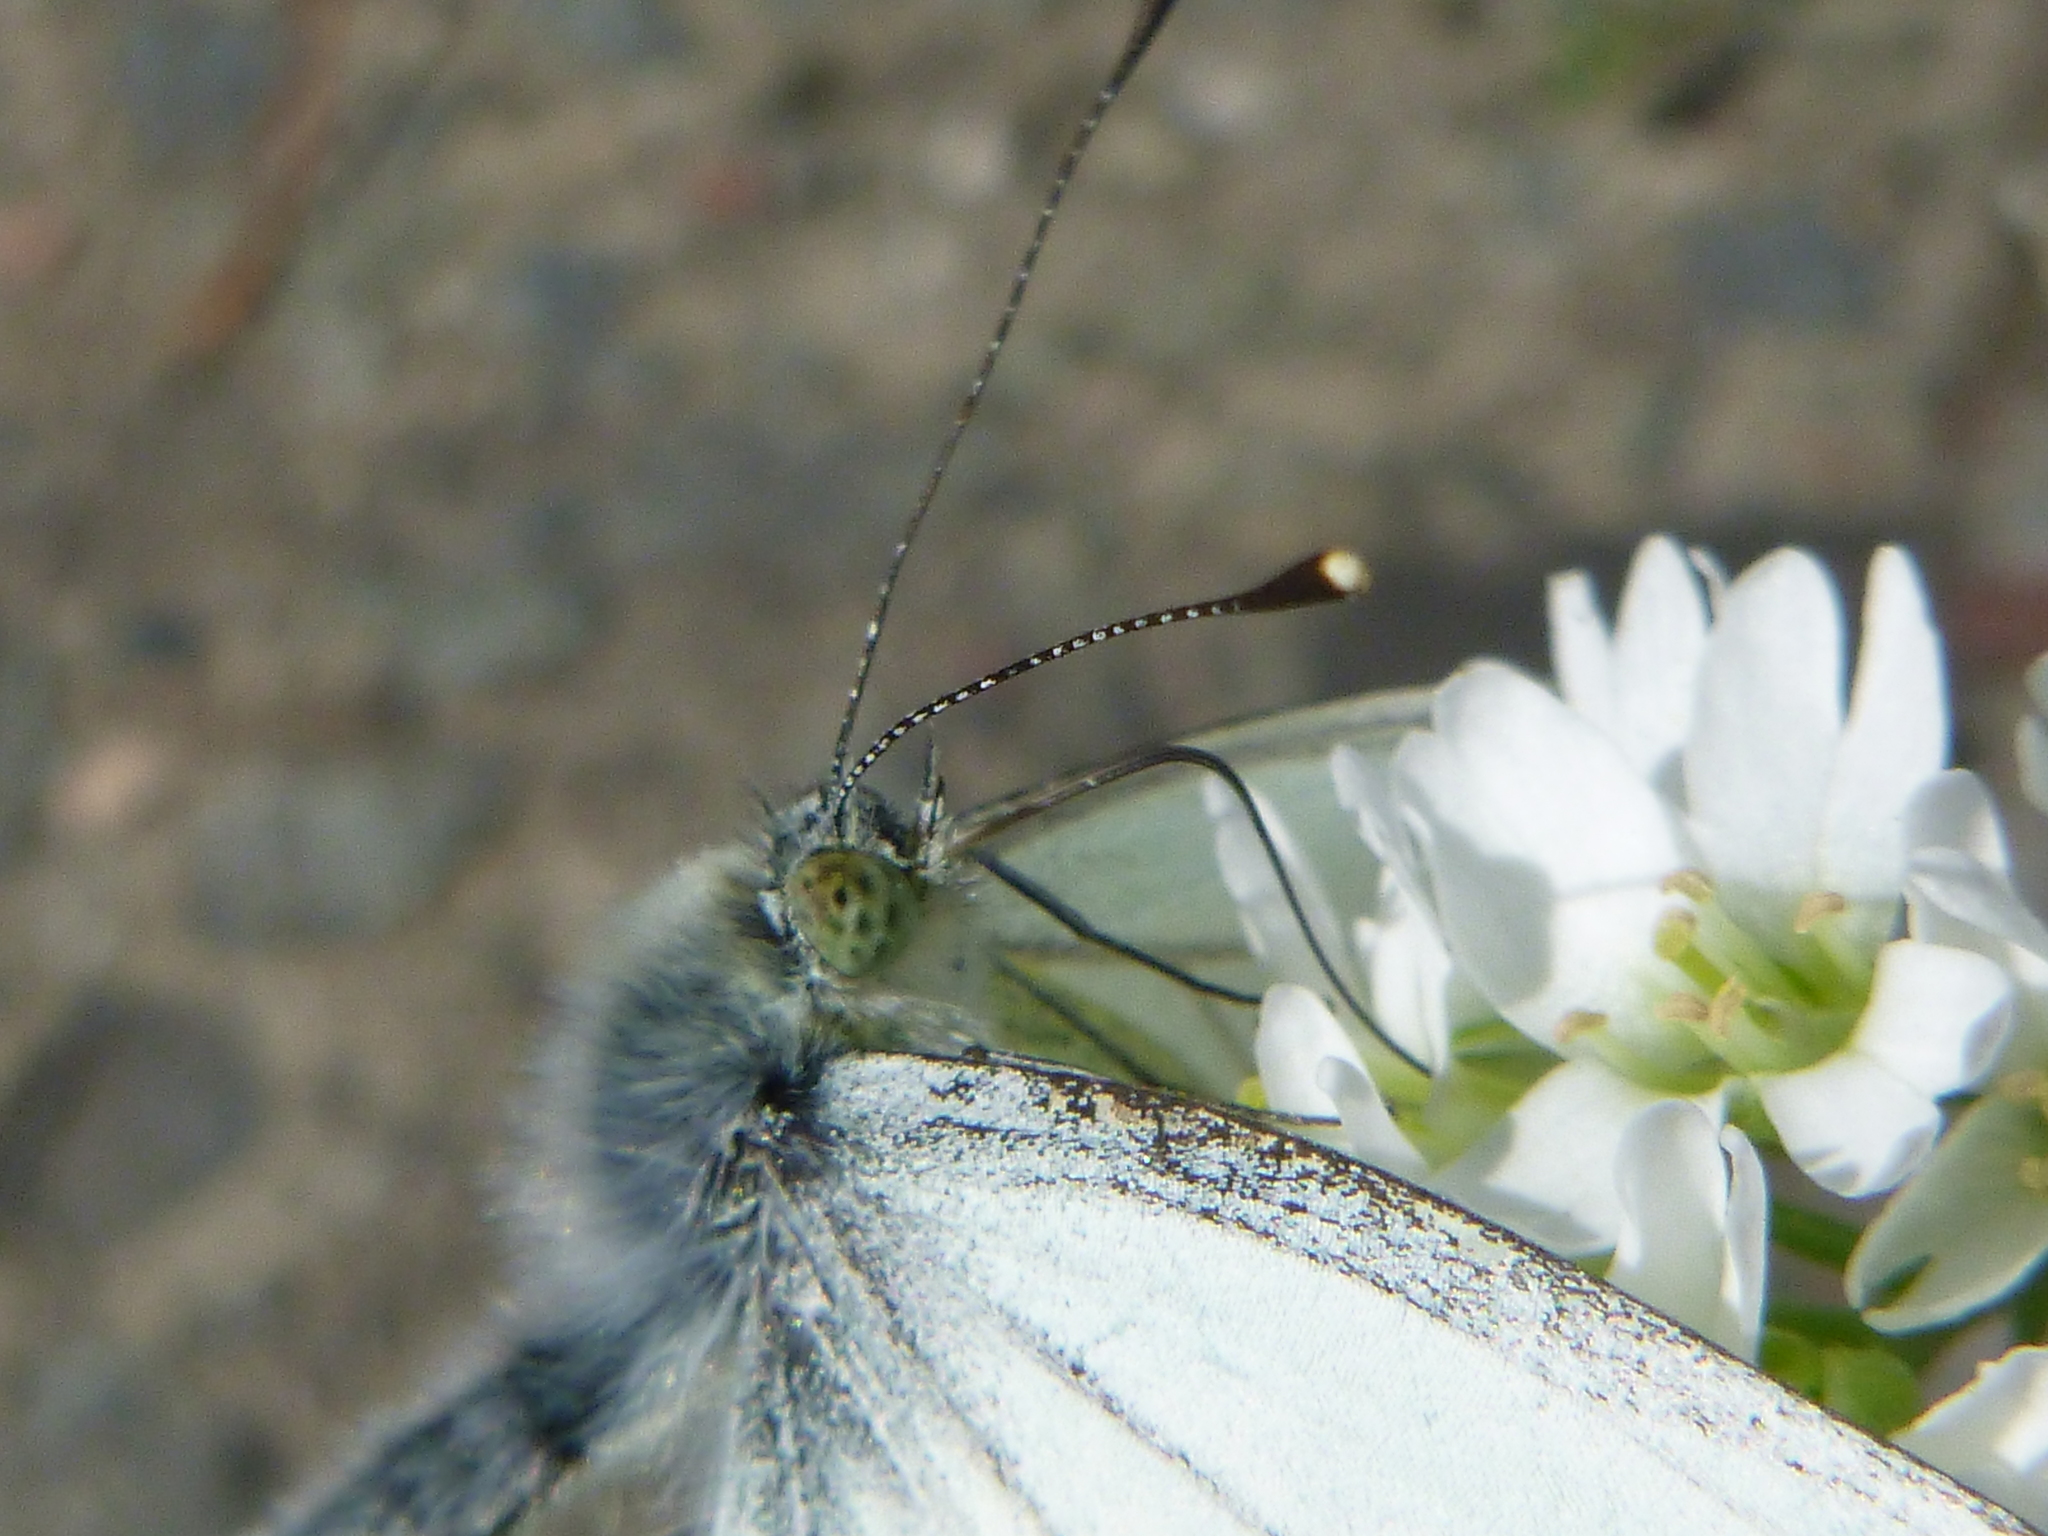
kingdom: Animalia
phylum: Arthropoda
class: Insecta
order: Lepidoptera
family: Pieridae
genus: Pieris
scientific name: Pieris napi
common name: Green-veined white
